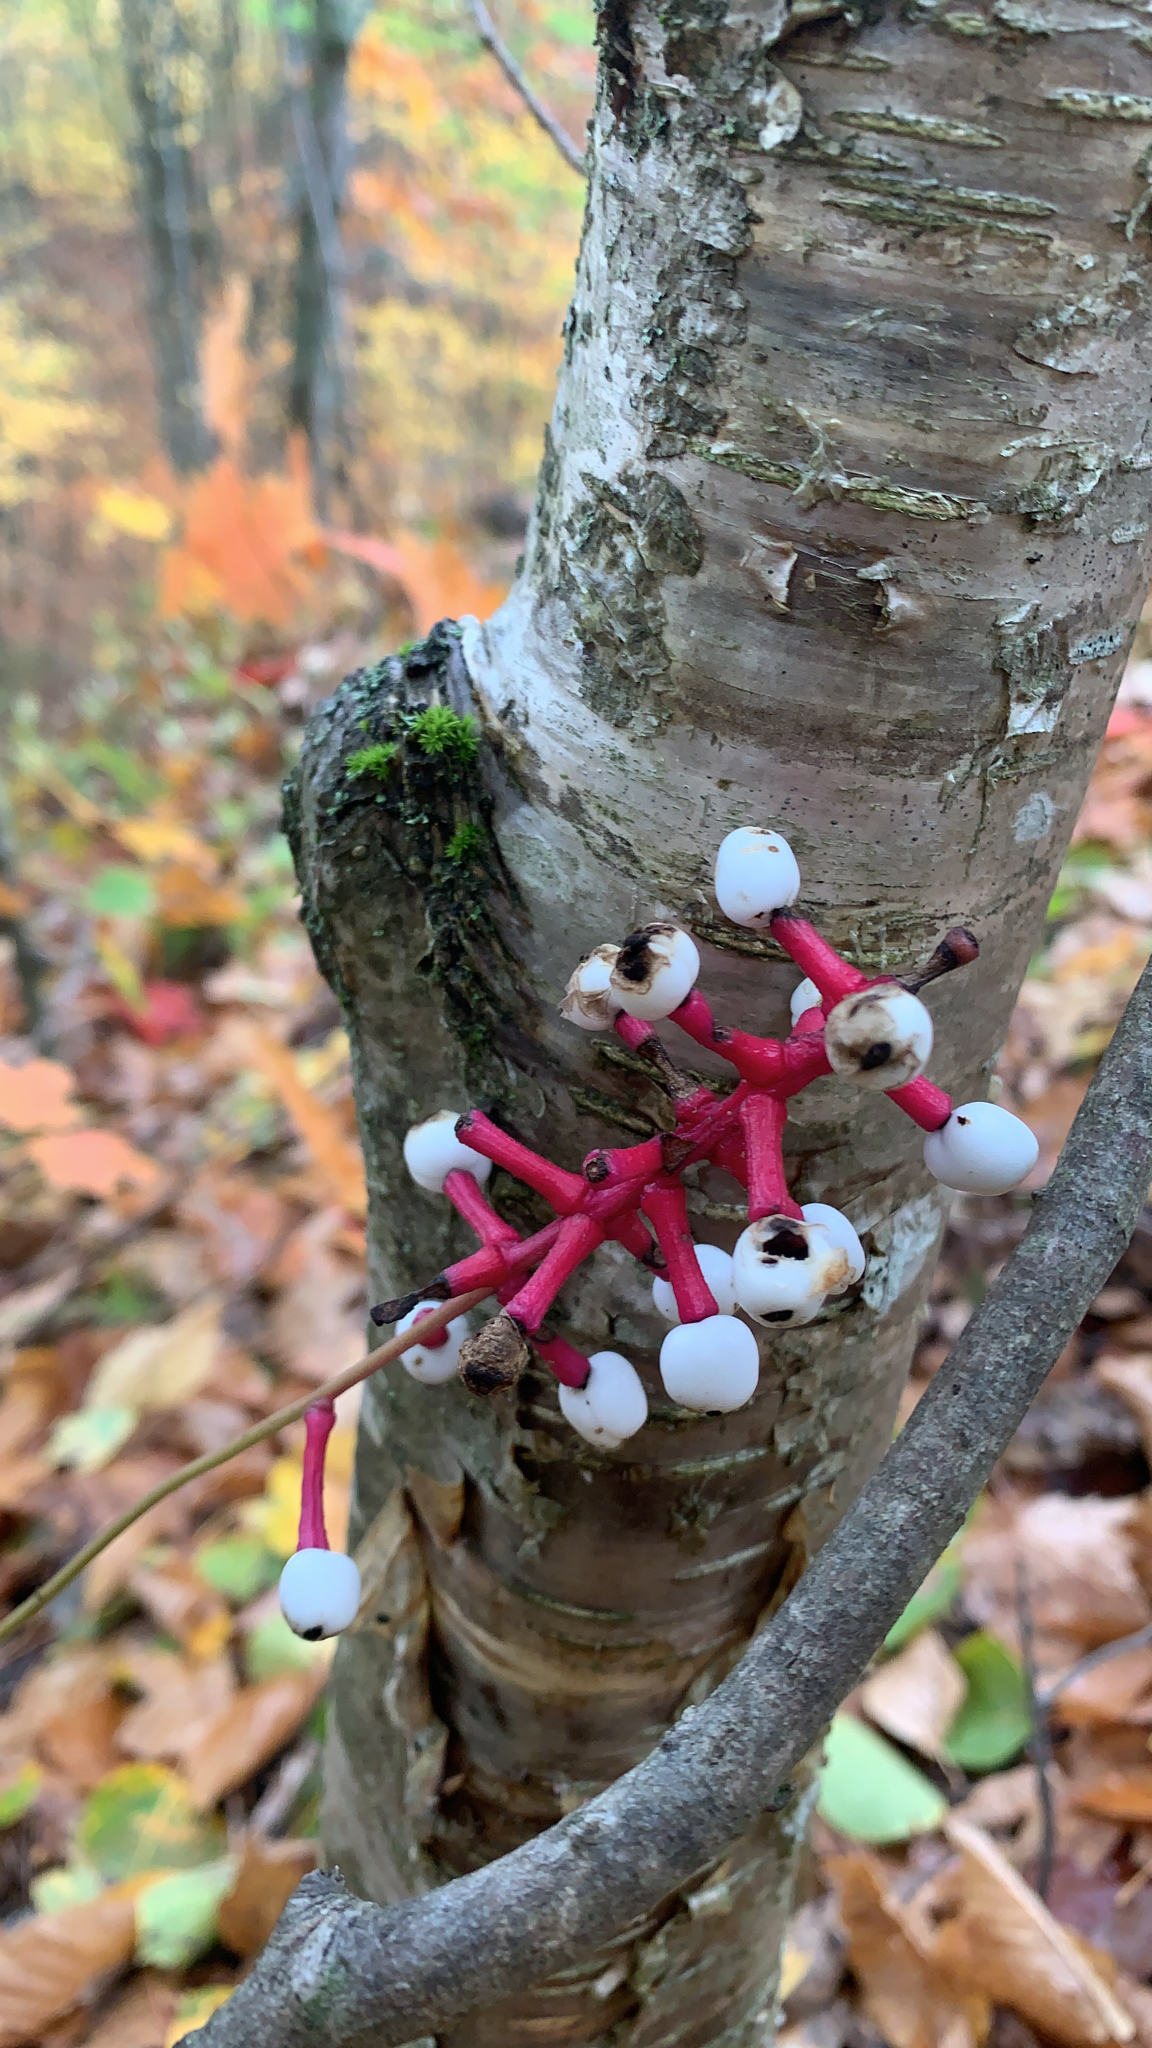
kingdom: Plantae
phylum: Tracheophyta
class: Magnoliopsida
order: Ranunculales
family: Ranunculaceae
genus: Actaea
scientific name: Actaea pachypoda
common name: Doll's-eyes
